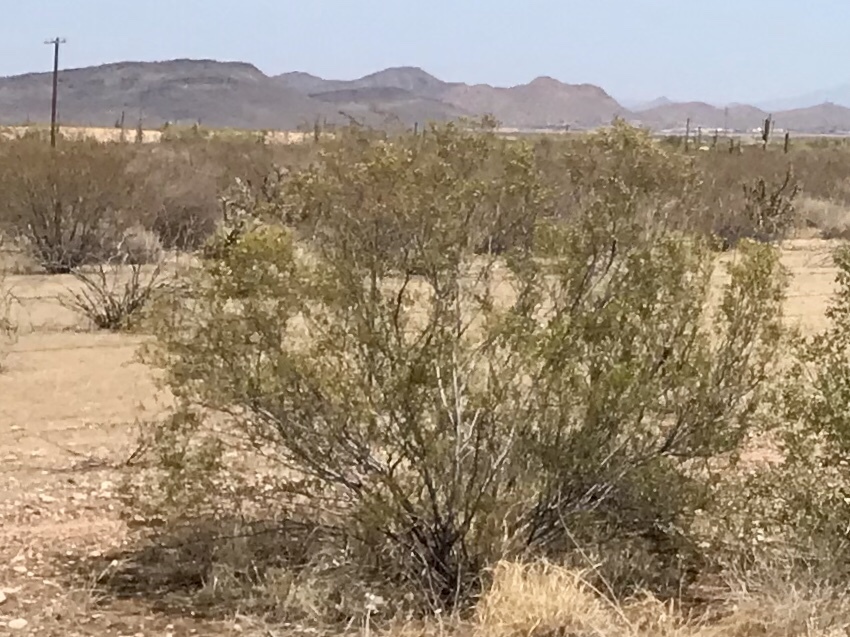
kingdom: Plantae
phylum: Tracheophyta
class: Magnoliopsida
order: Zygophyllales
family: Zygophyllaceae
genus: Larrea
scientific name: Larrea tridentata
